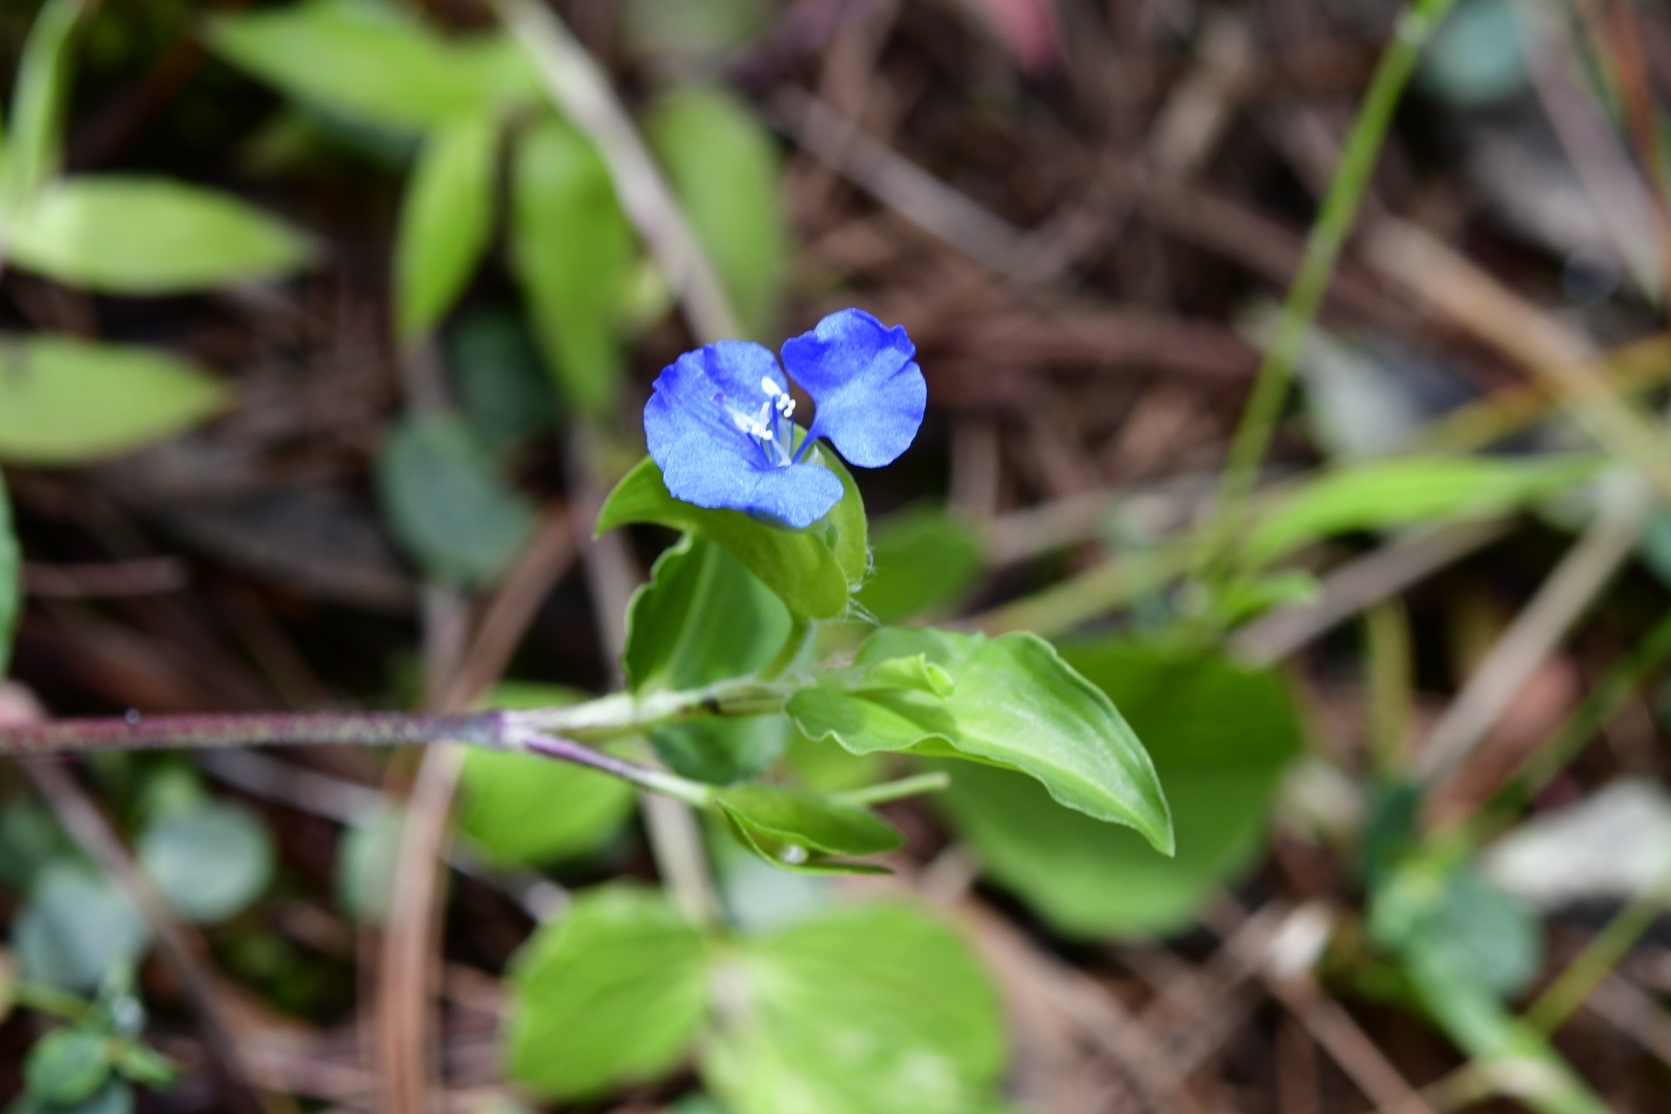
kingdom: Plantae
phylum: Tracheophyta
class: Liliopsida
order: Commelinales
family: Commelinaceae
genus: Commelina
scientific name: Commelina tuberosa
